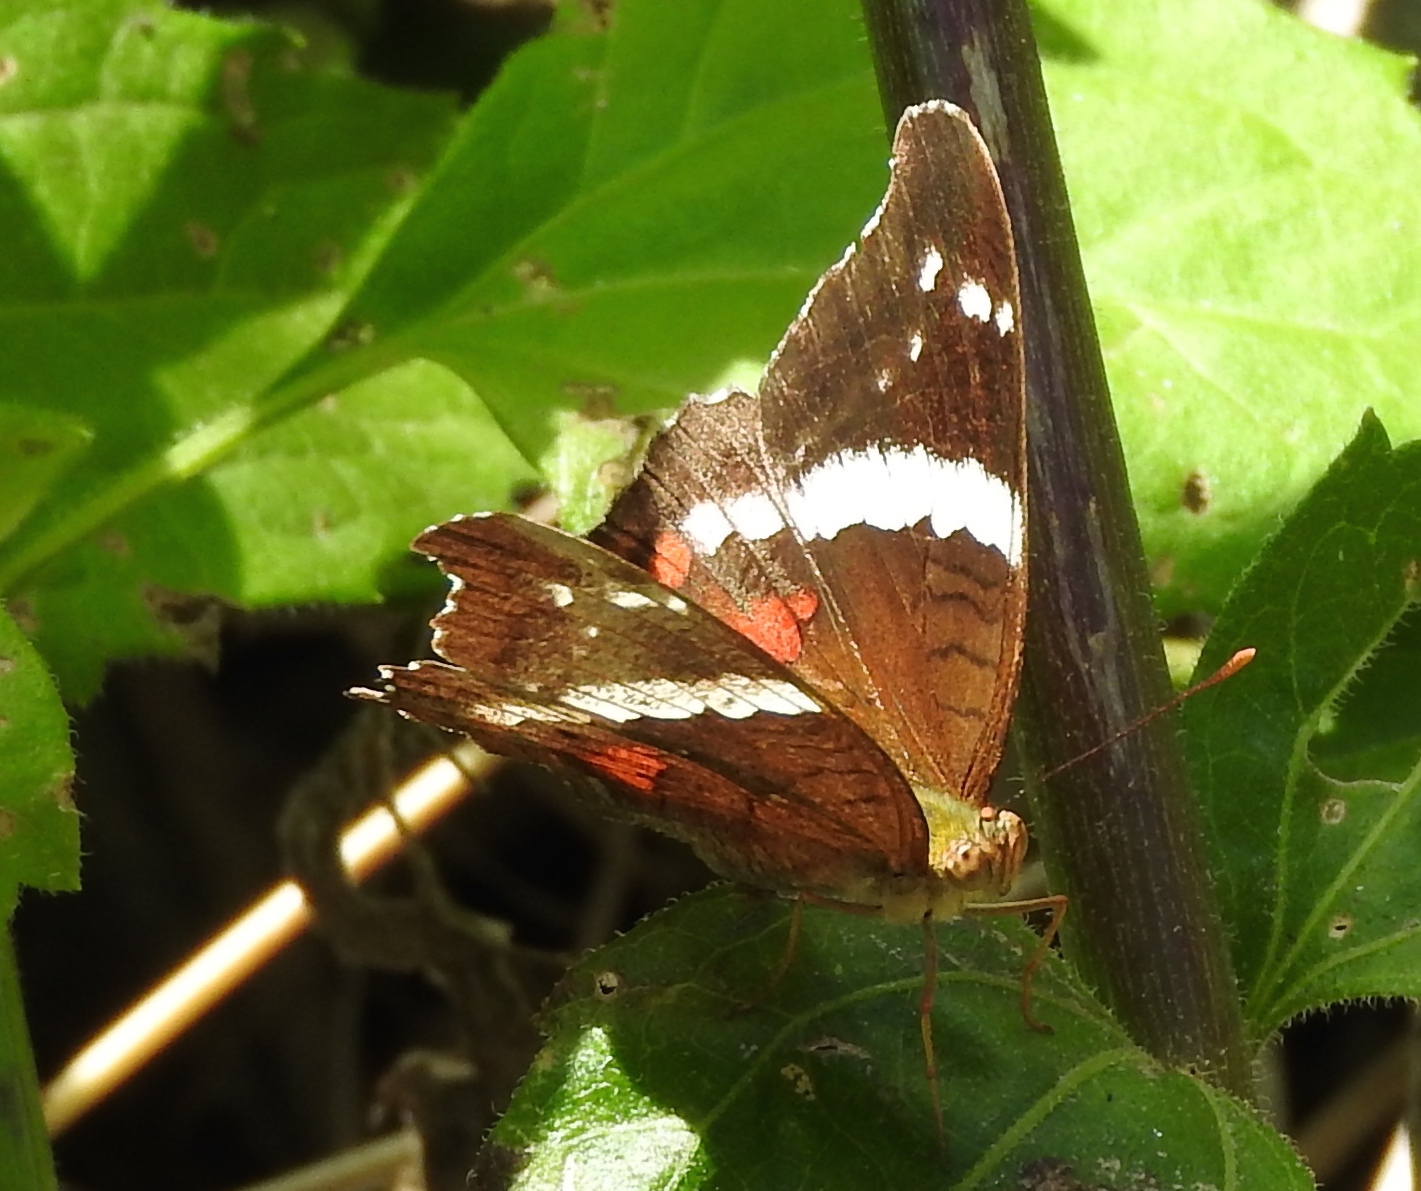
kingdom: Animalia
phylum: Arthropoda
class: Insecta
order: Lepidoptera
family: Nymphalidae
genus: Anartia
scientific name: Anartia fatima
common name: Banded peacock
